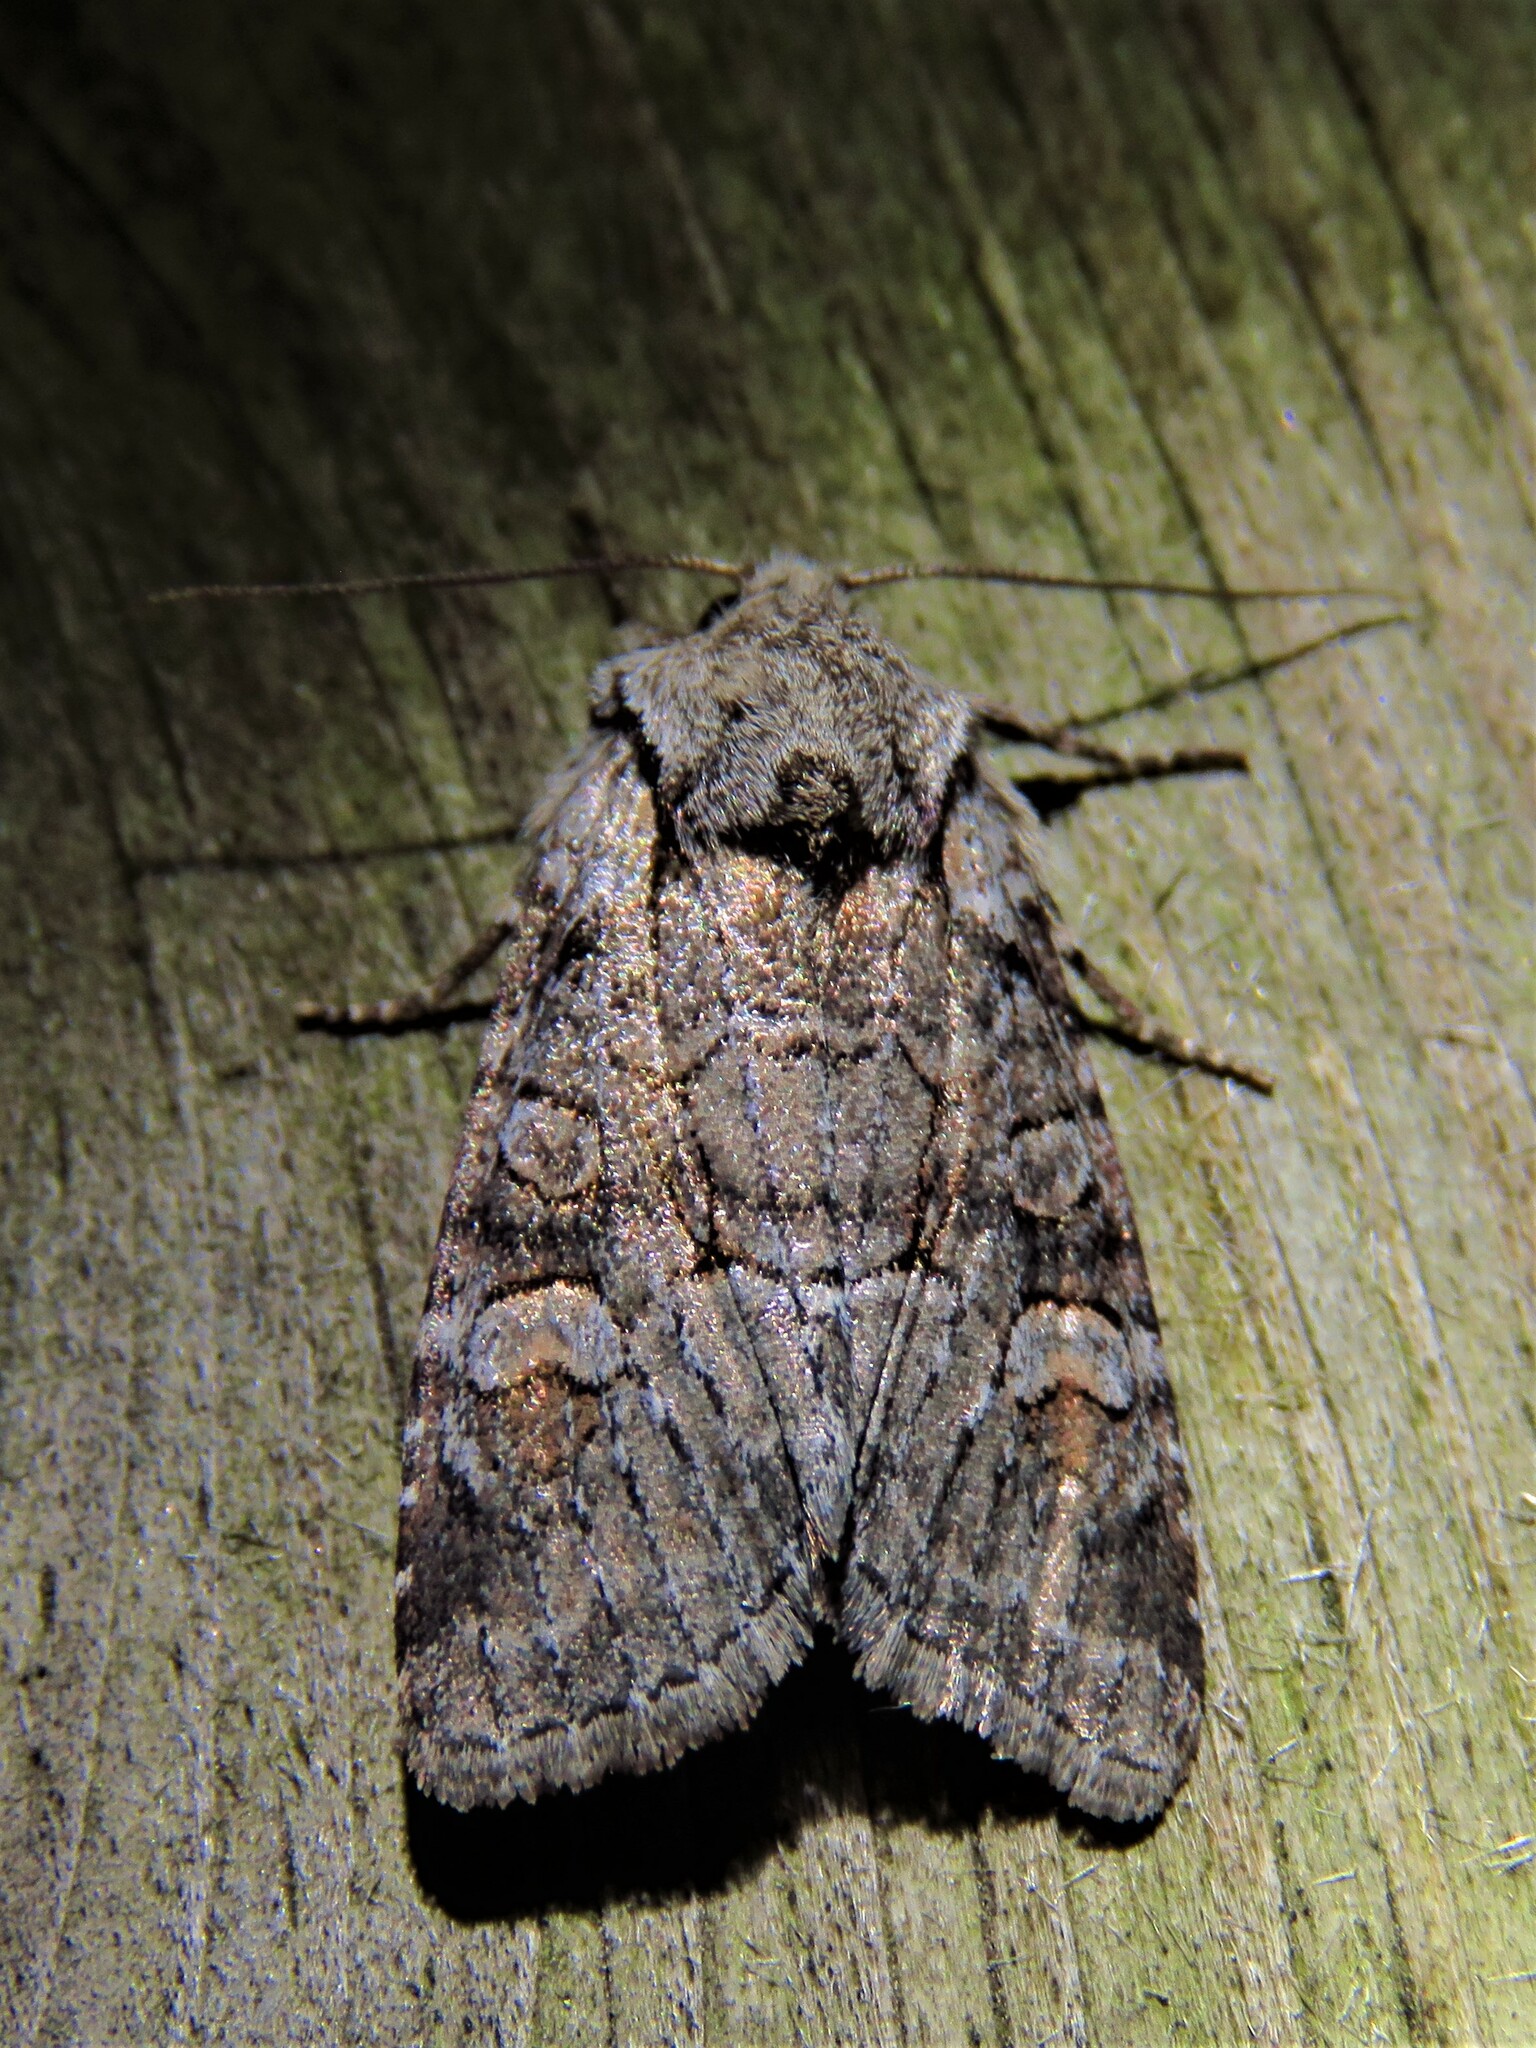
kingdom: Animalia
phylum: Arthropoda
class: Insecta
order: Lepidoptera
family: Noctuidae
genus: Brachylomia
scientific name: Brachylomia viminalis
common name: Minor shoulder-knot
